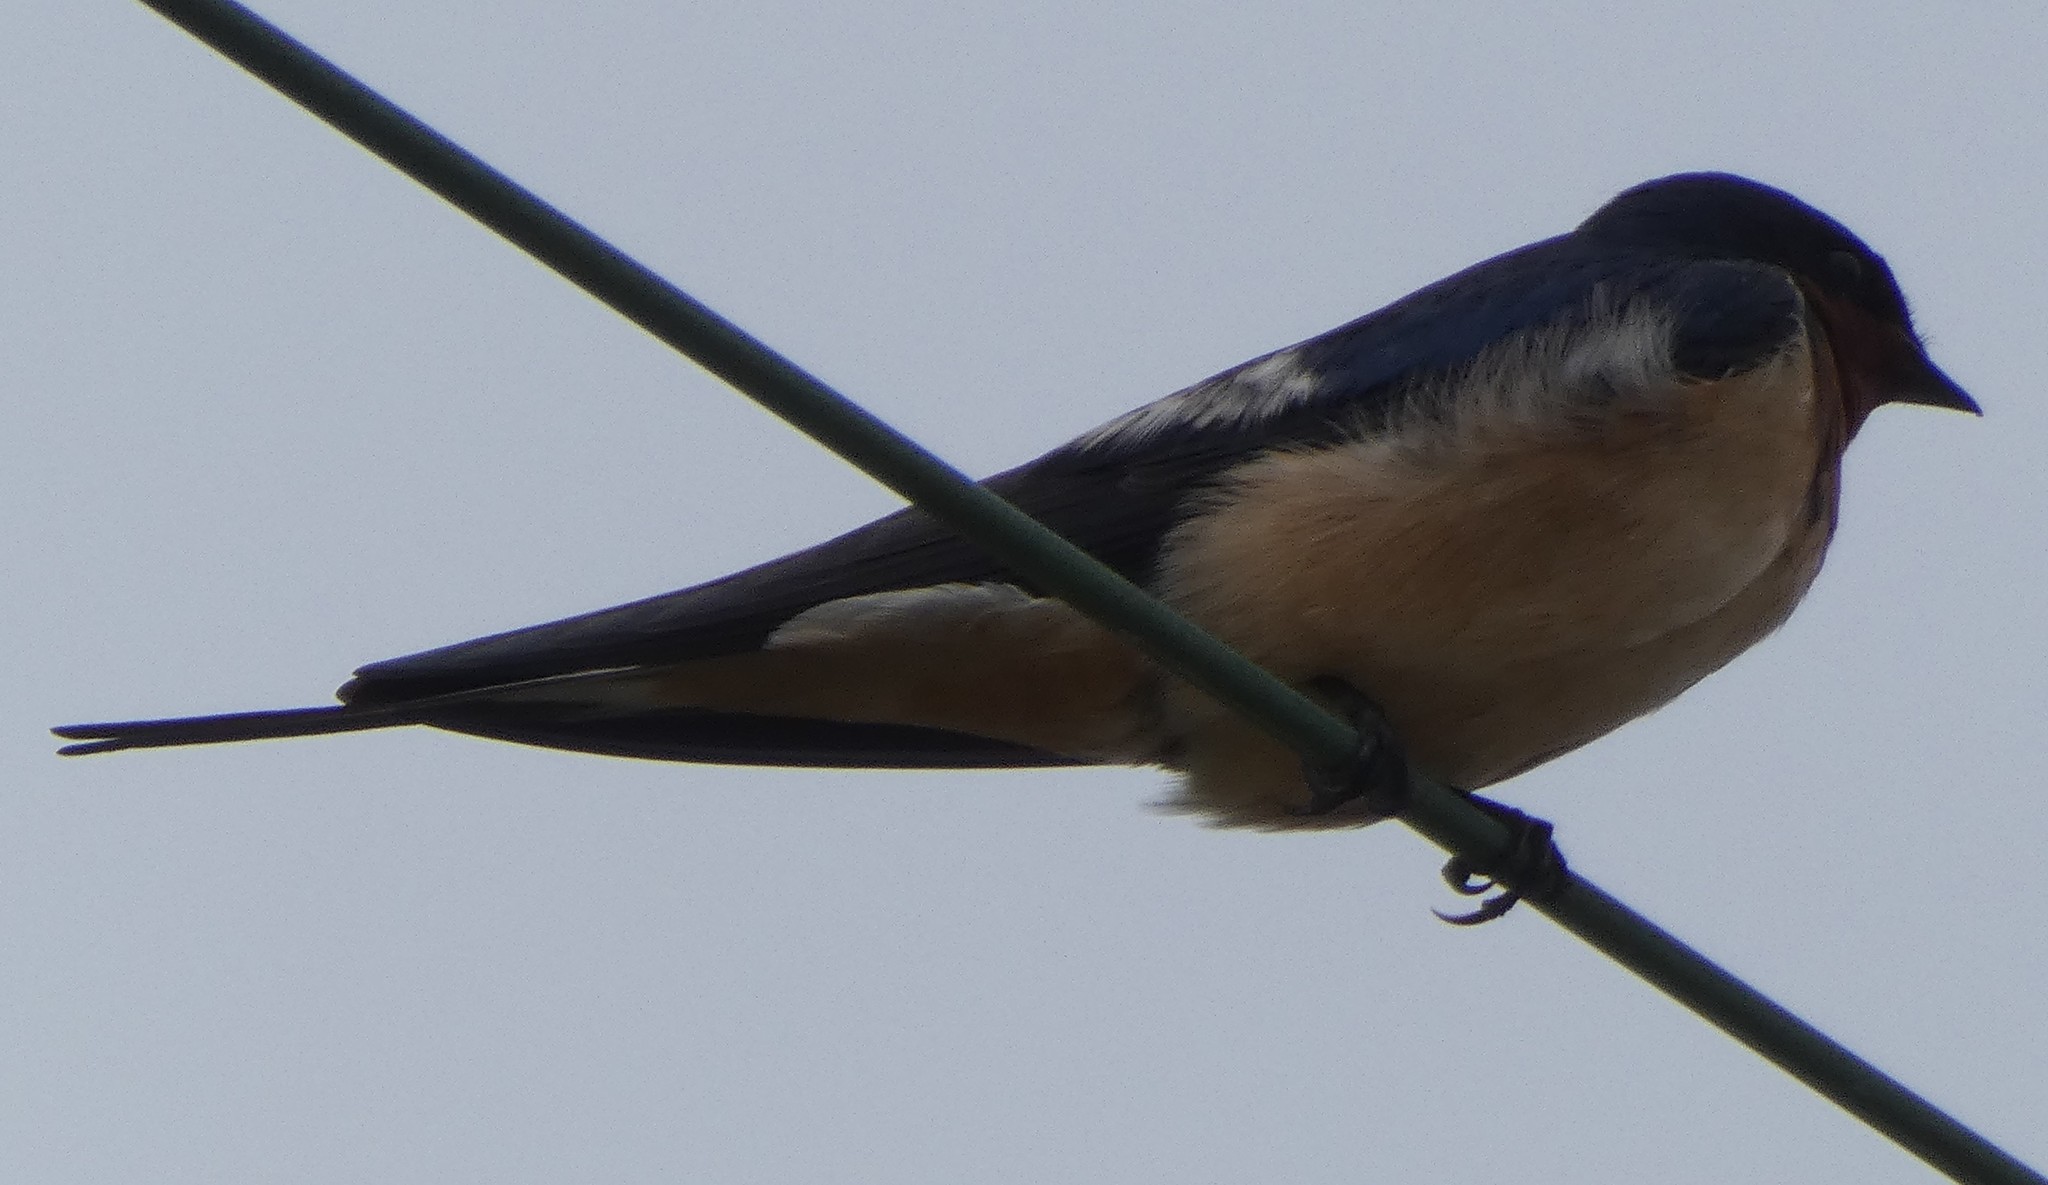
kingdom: Animalia
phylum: Chordata
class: Aves
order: Passeriformes
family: Hirundinidae
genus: Hirundo
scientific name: Hirundo rustica
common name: Barn swallow
